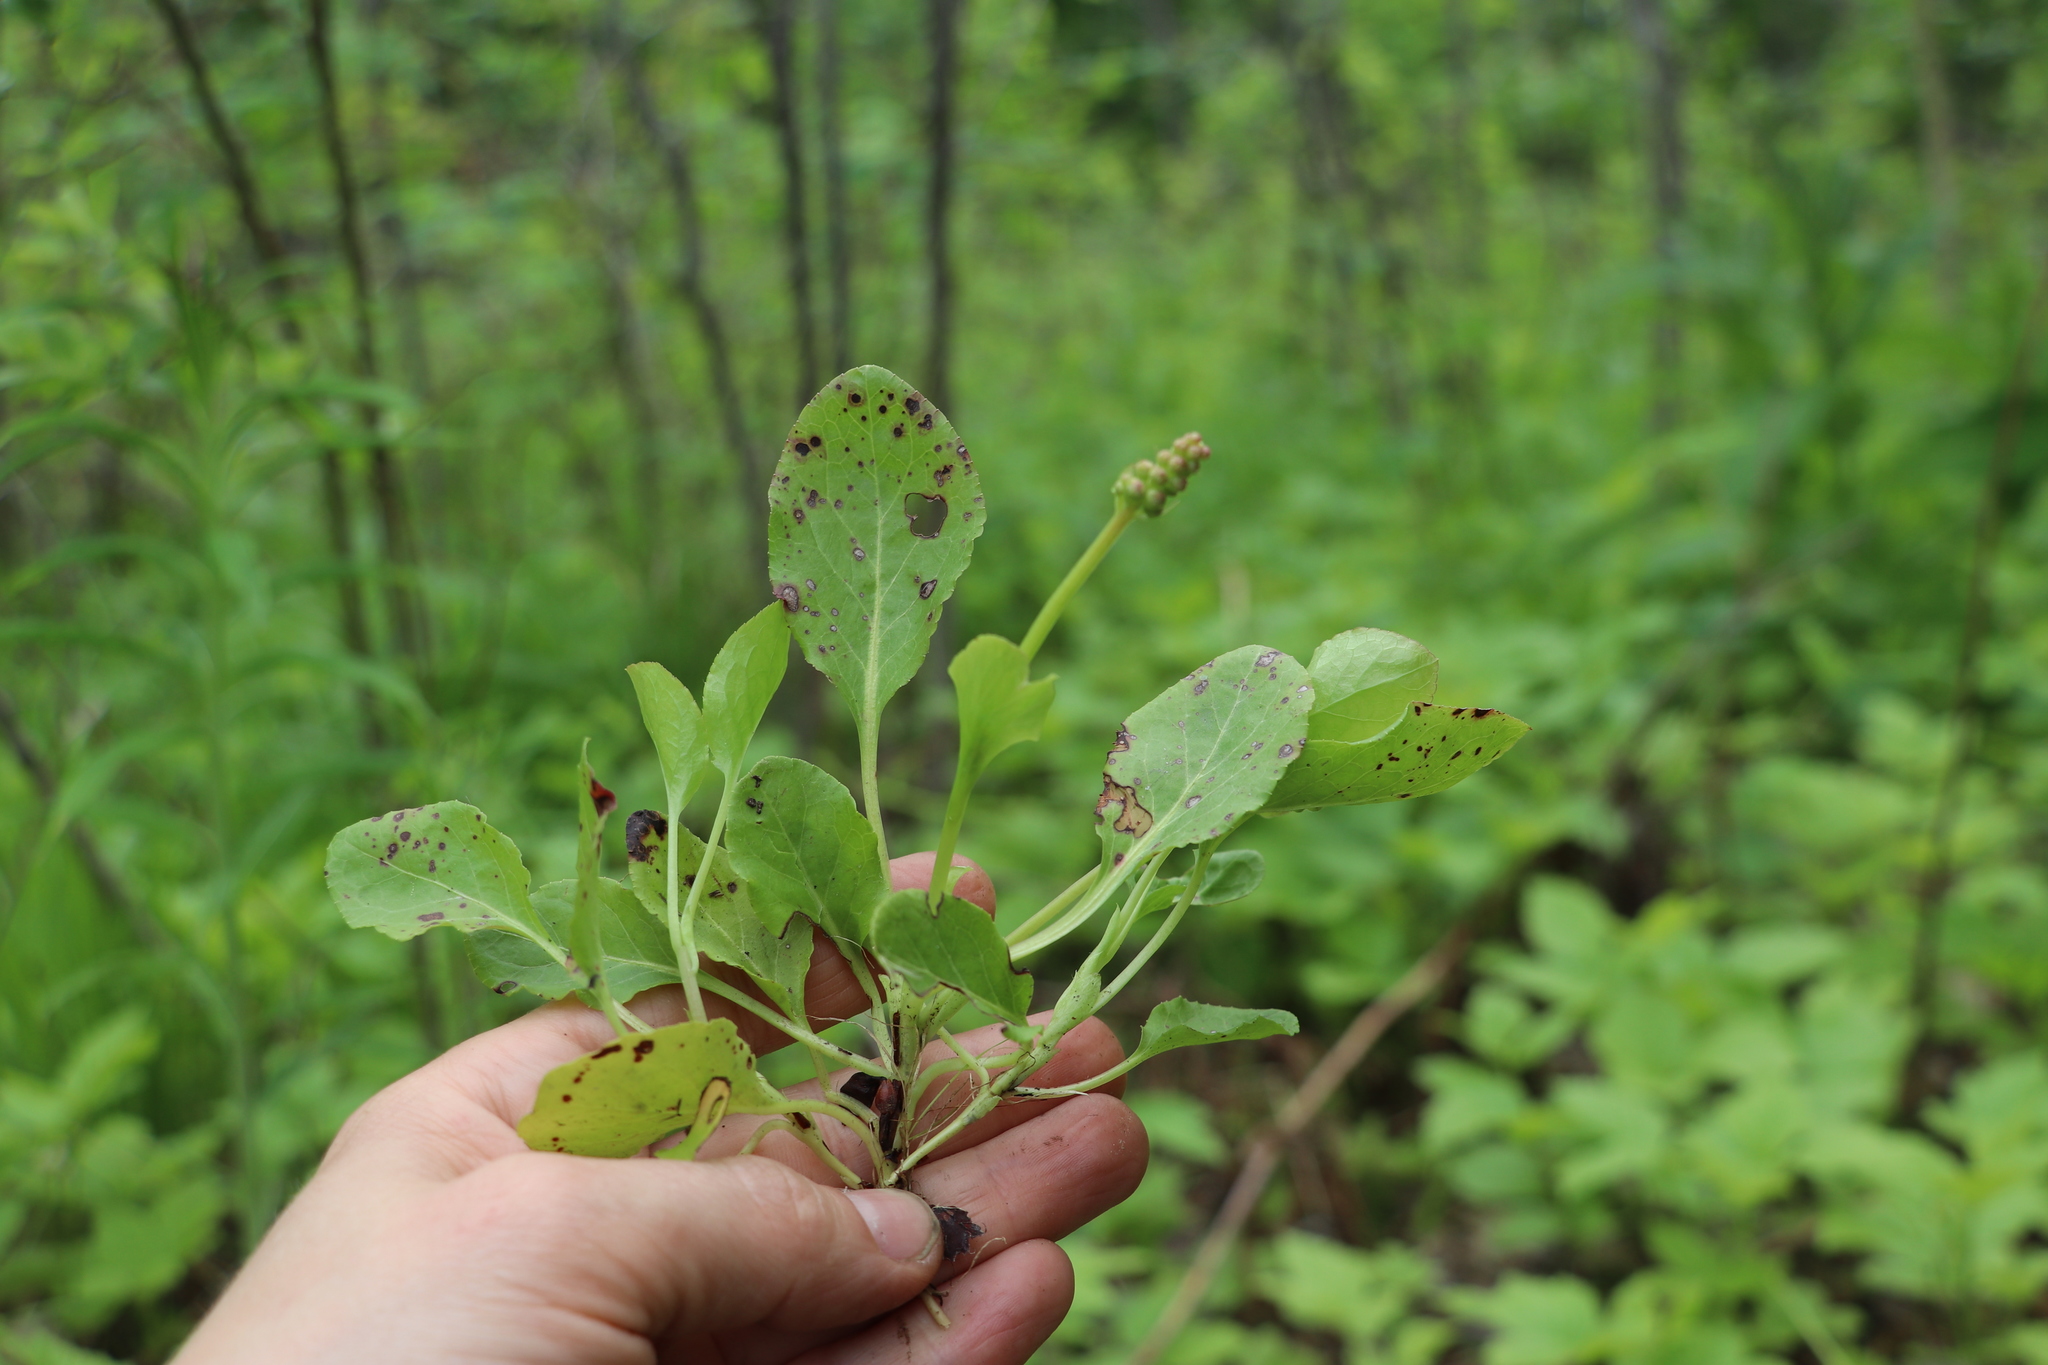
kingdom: Plantae
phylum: Tracheophyta
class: Magnoliopsida
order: Ericales
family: Ericaceae
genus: Pyrola
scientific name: Pyrola minor
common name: Common wintergreen
